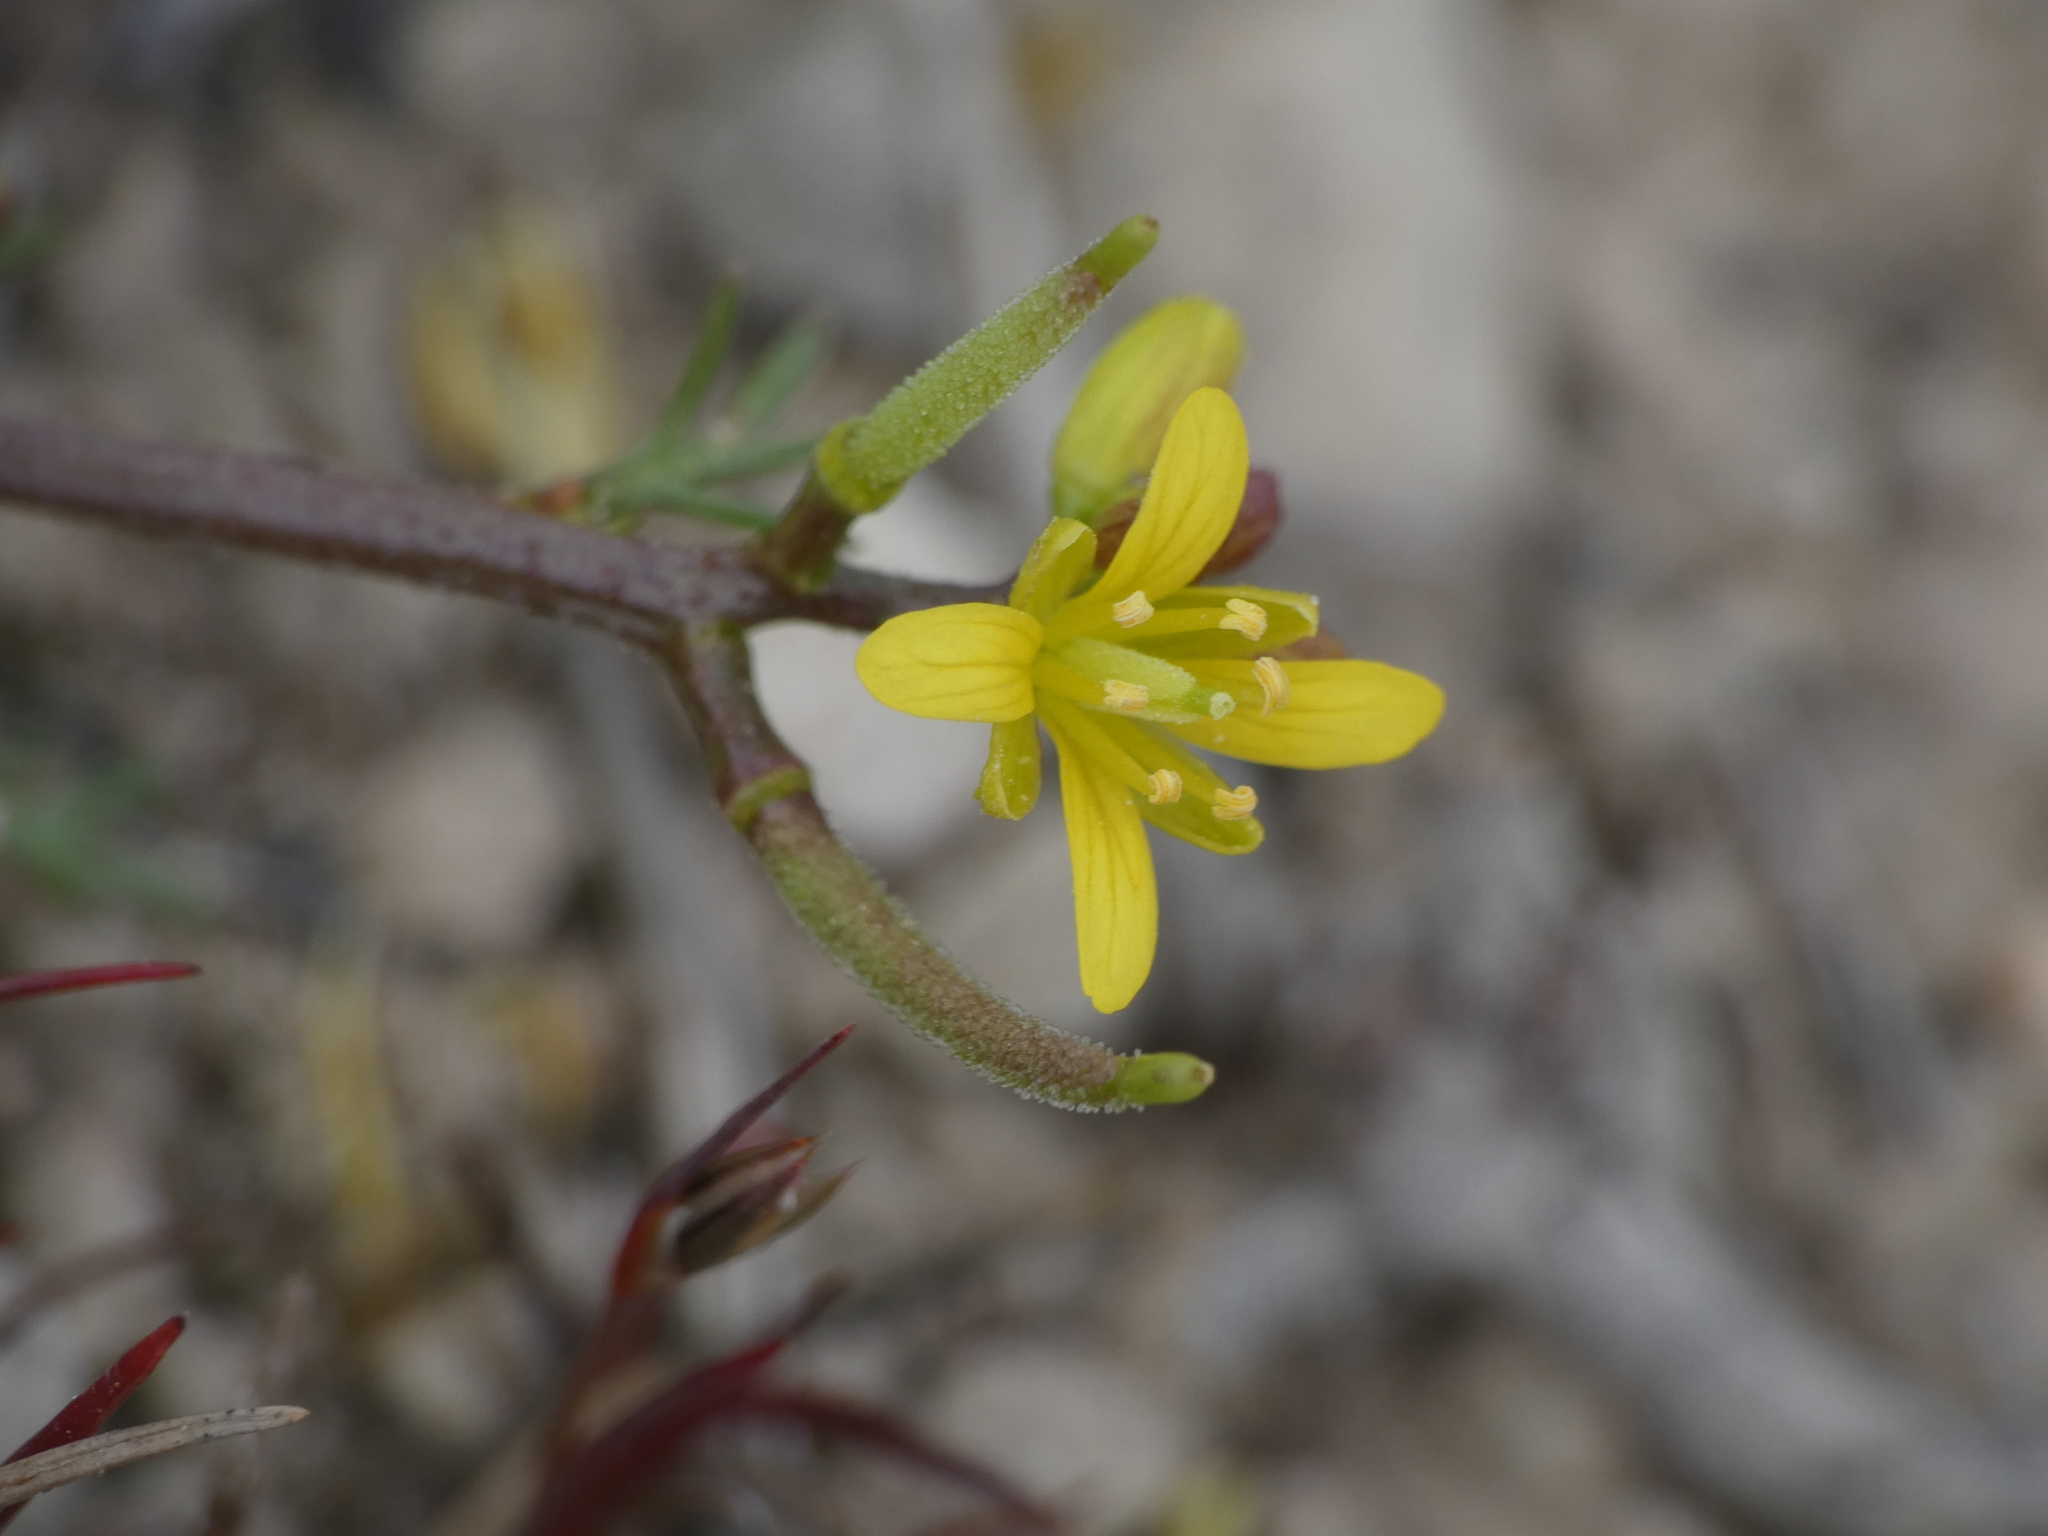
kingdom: Plantae
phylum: Tracheophyta
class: Magnoliopsida
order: Brassicales
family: Brassicaceae
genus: Sisymbrella
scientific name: Sisymbrella aspera
